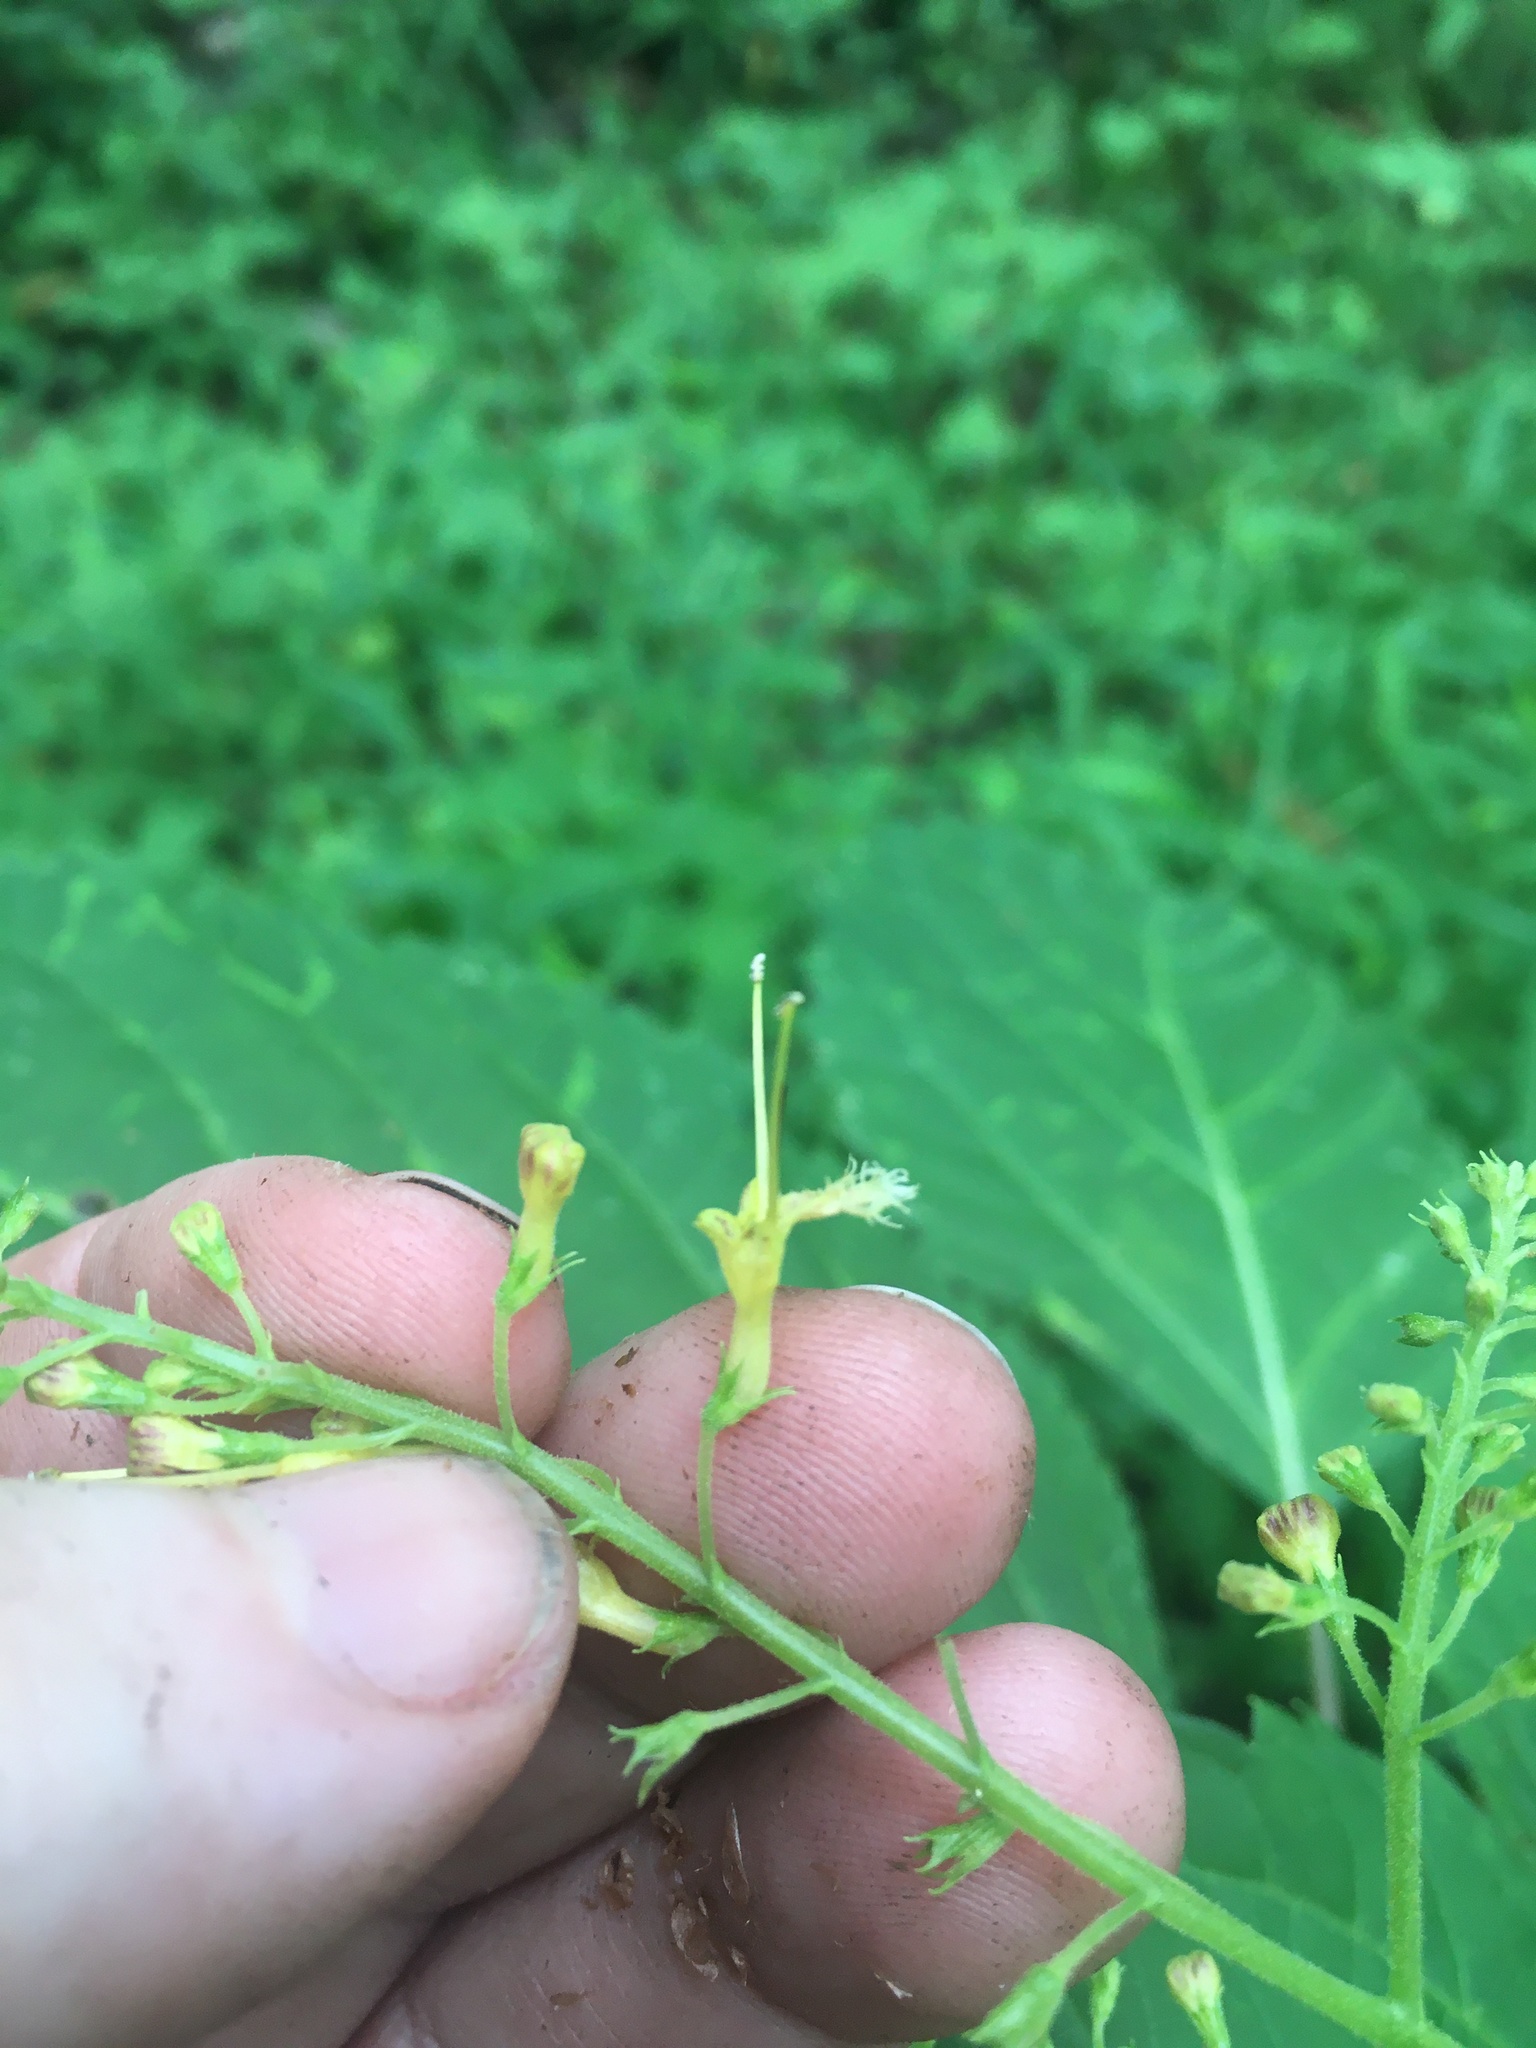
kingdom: Plantae
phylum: Tracheophyta
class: Magnoliopsida
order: Lamiales
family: Lamiaceae
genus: Collinsonia
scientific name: Collinsonia canadensis
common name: Northern horsebalm
